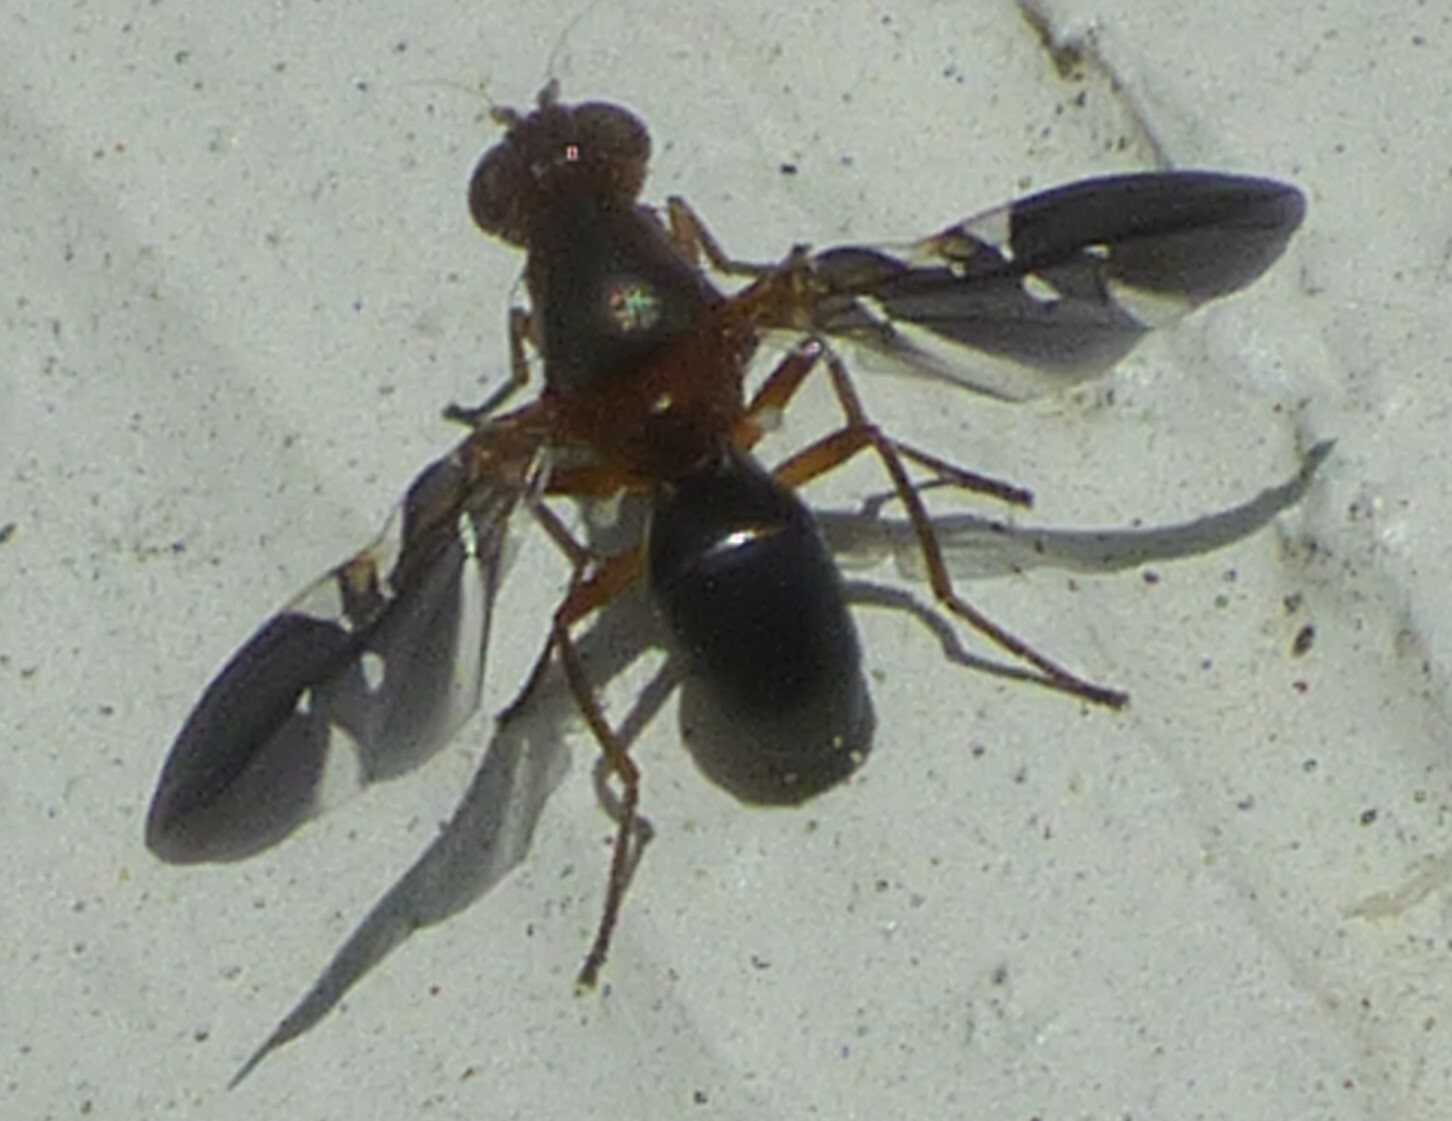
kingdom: Animalia
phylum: Arthropoda
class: Insecta
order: Diptera
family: Ulidiidae
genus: Delphinia
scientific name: Delphinia picta
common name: Common picture-winged fly
